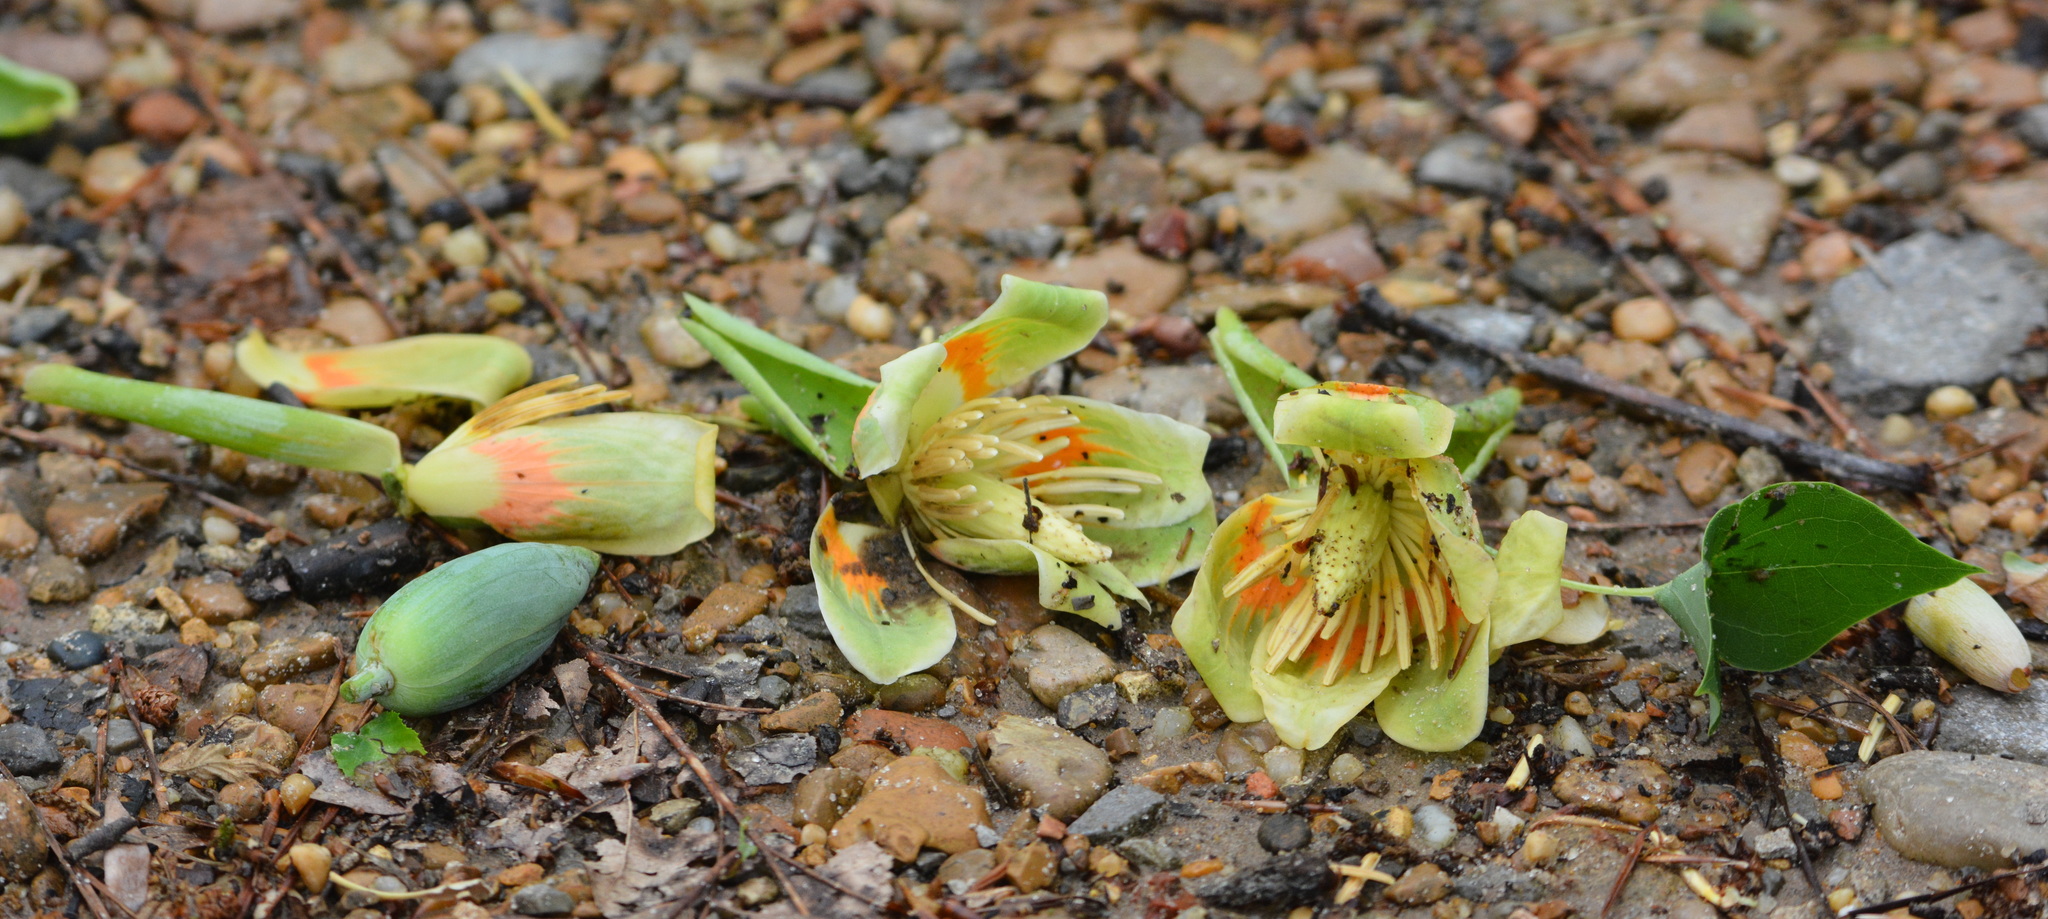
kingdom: Plantae
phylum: Tracheophyta
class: Magnoliopsida
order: Magnoliales
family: Magnoliaceae
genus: Liriodendron
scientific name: Liriodendron tulipifera
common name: Tulip tree
